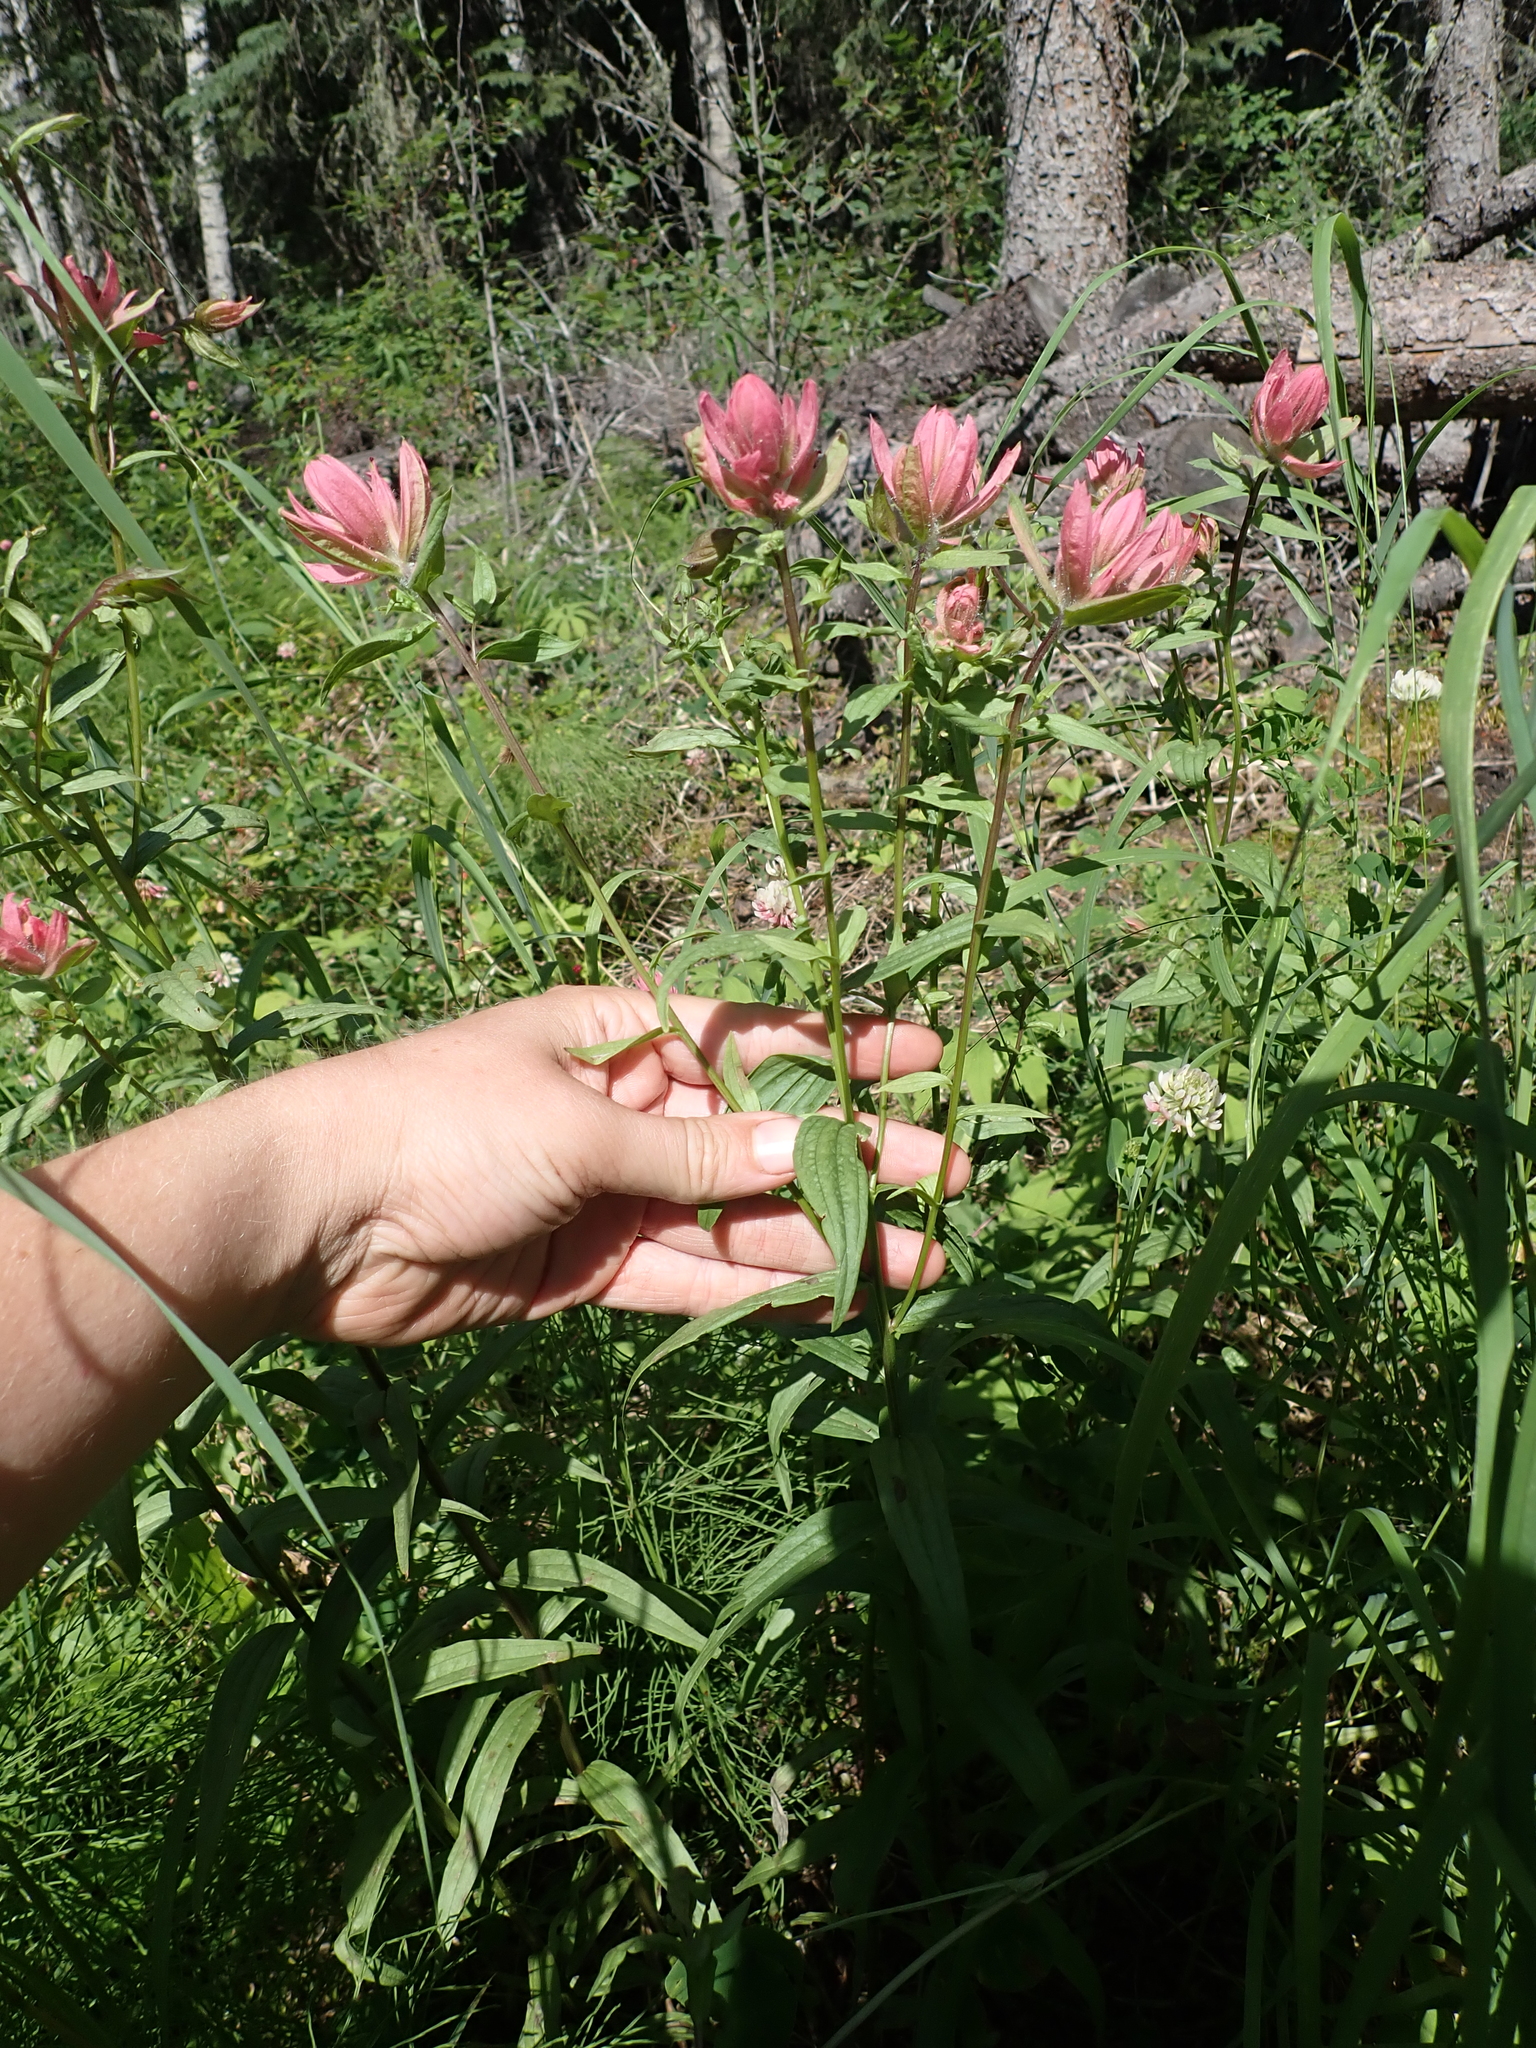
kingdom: Plantae
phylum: Tracheophyta
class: Magnoliopsida
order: Lamiales
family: Orobanchaceae
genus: Castilleja
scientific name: Castilleja miniata
